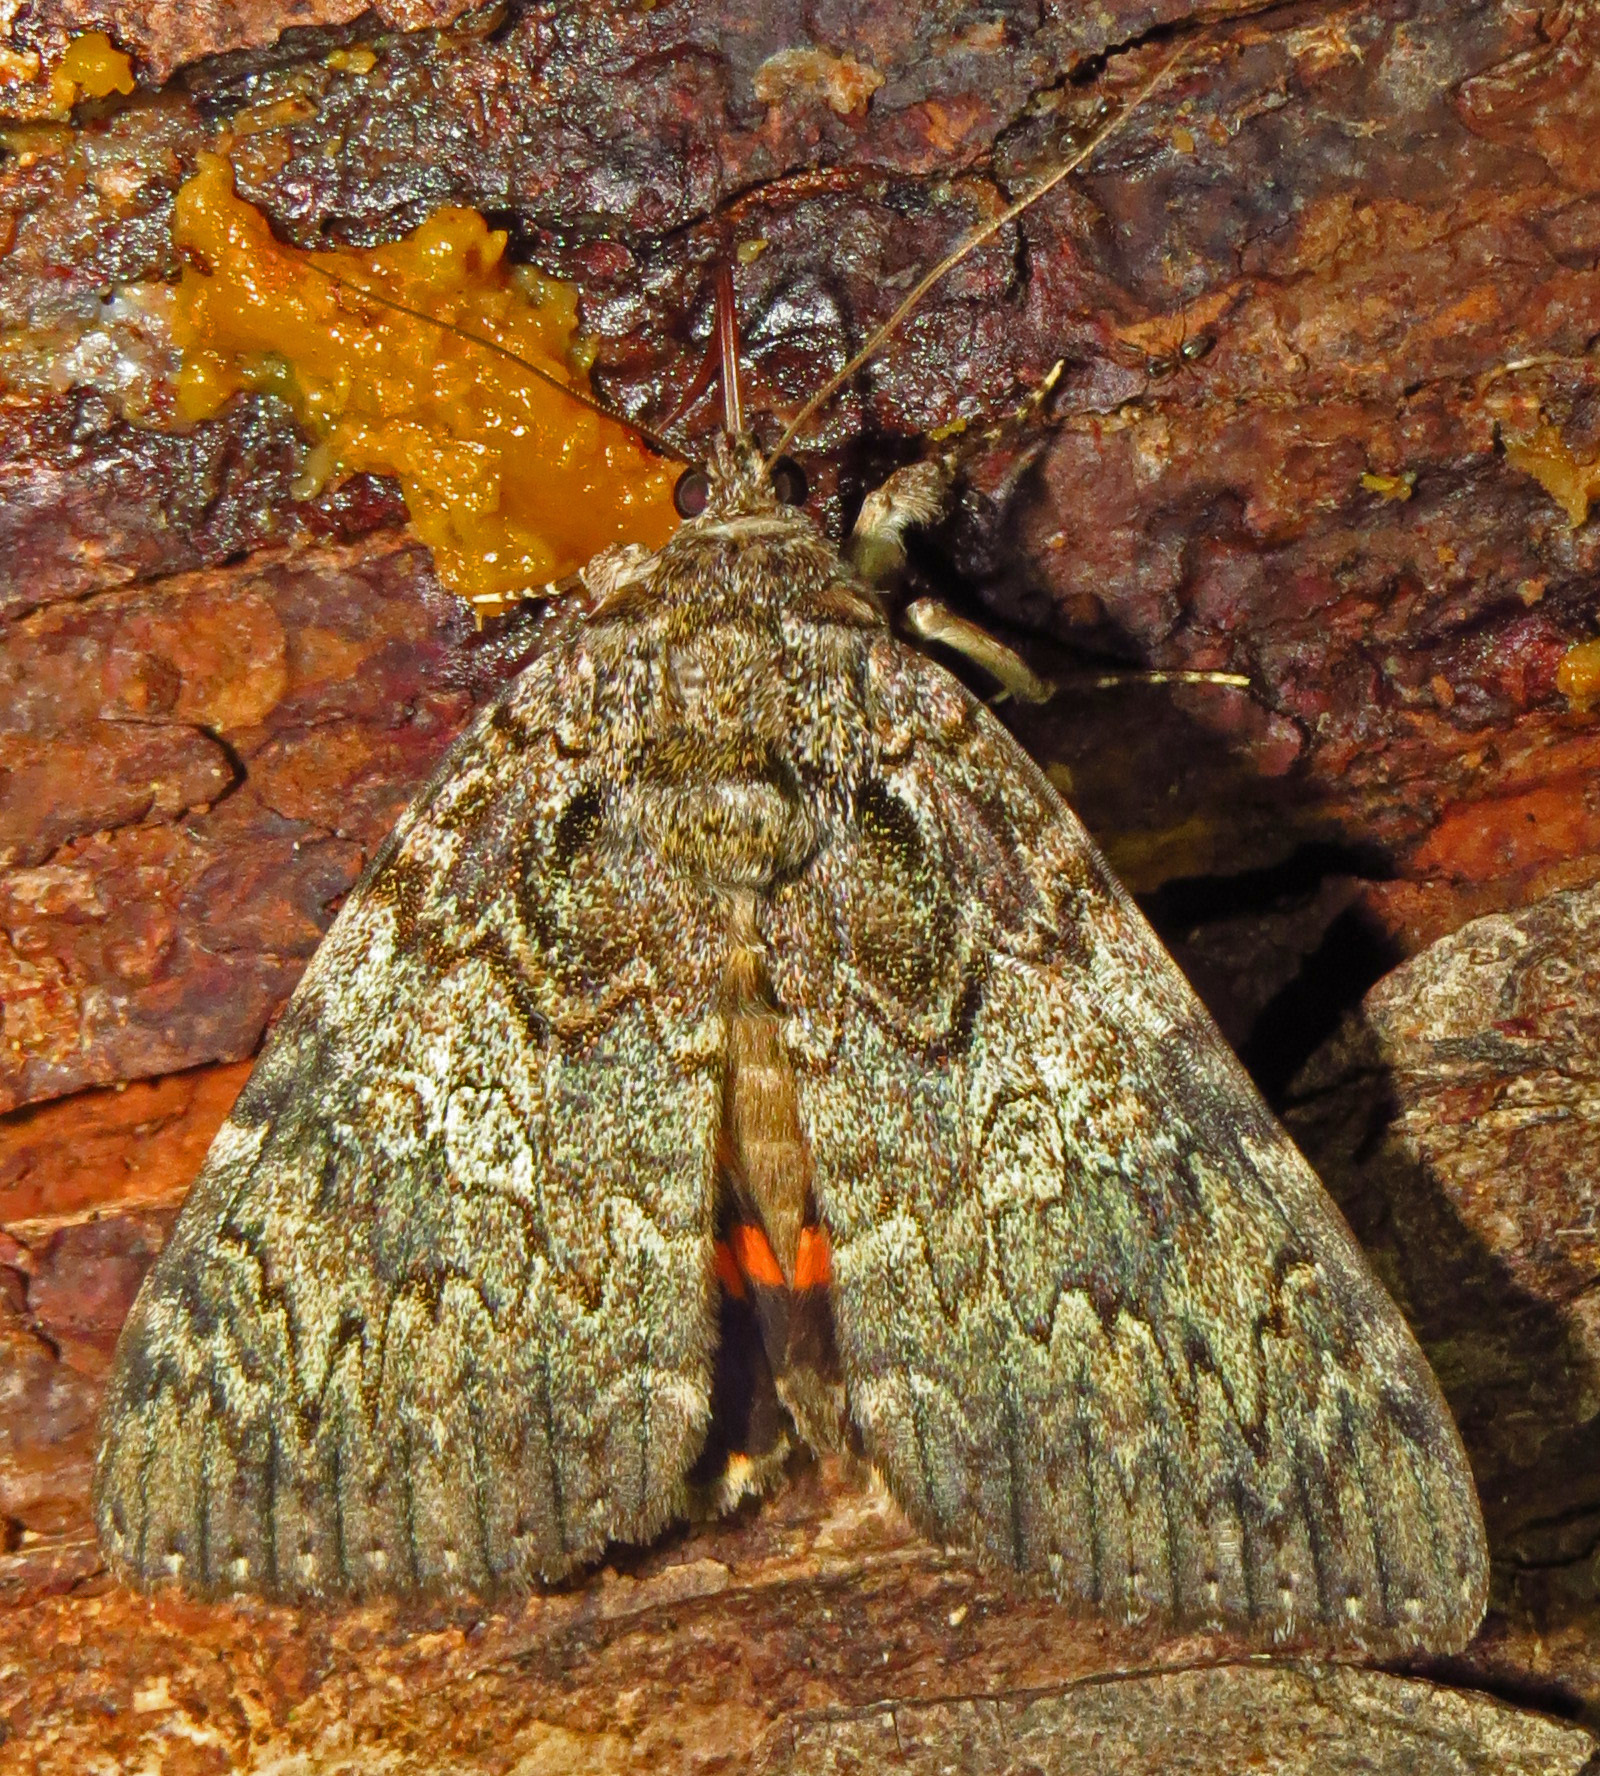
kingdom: Animalia
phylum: Arthropoda
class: Insecta
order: Lepidoptera
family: Erebidae
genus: Catocala
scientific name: Catocala ilia
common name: Ilia underwing
